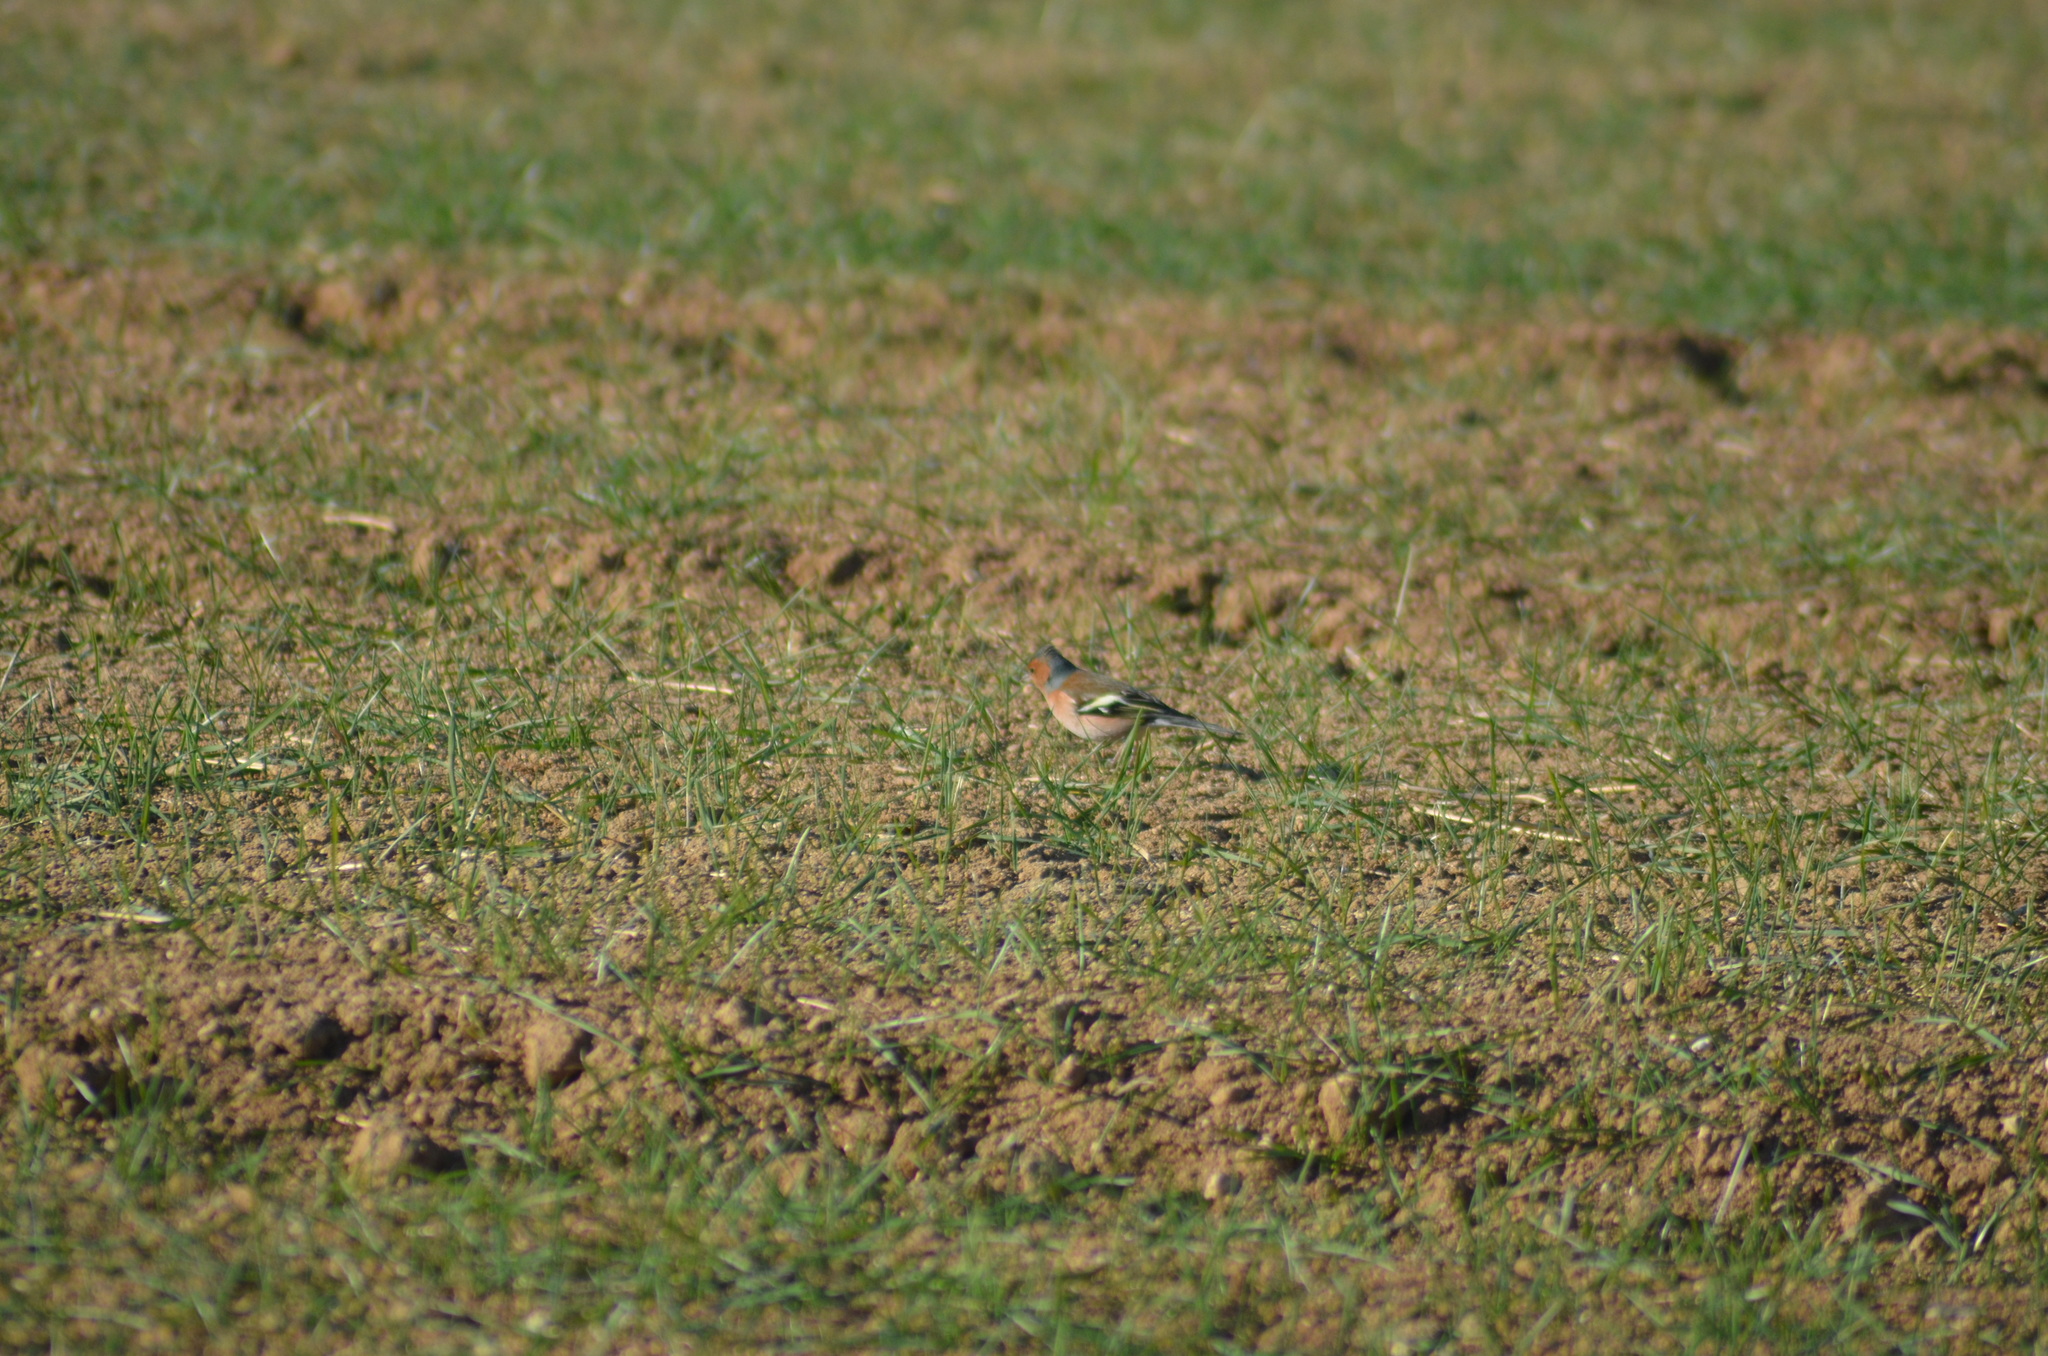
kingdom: Animalia
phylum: Chordata
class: Aves
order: Passeriformes
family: Fringillidae
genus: Fringilla
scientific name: Fringilla coelebs
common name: Common chaffinch
